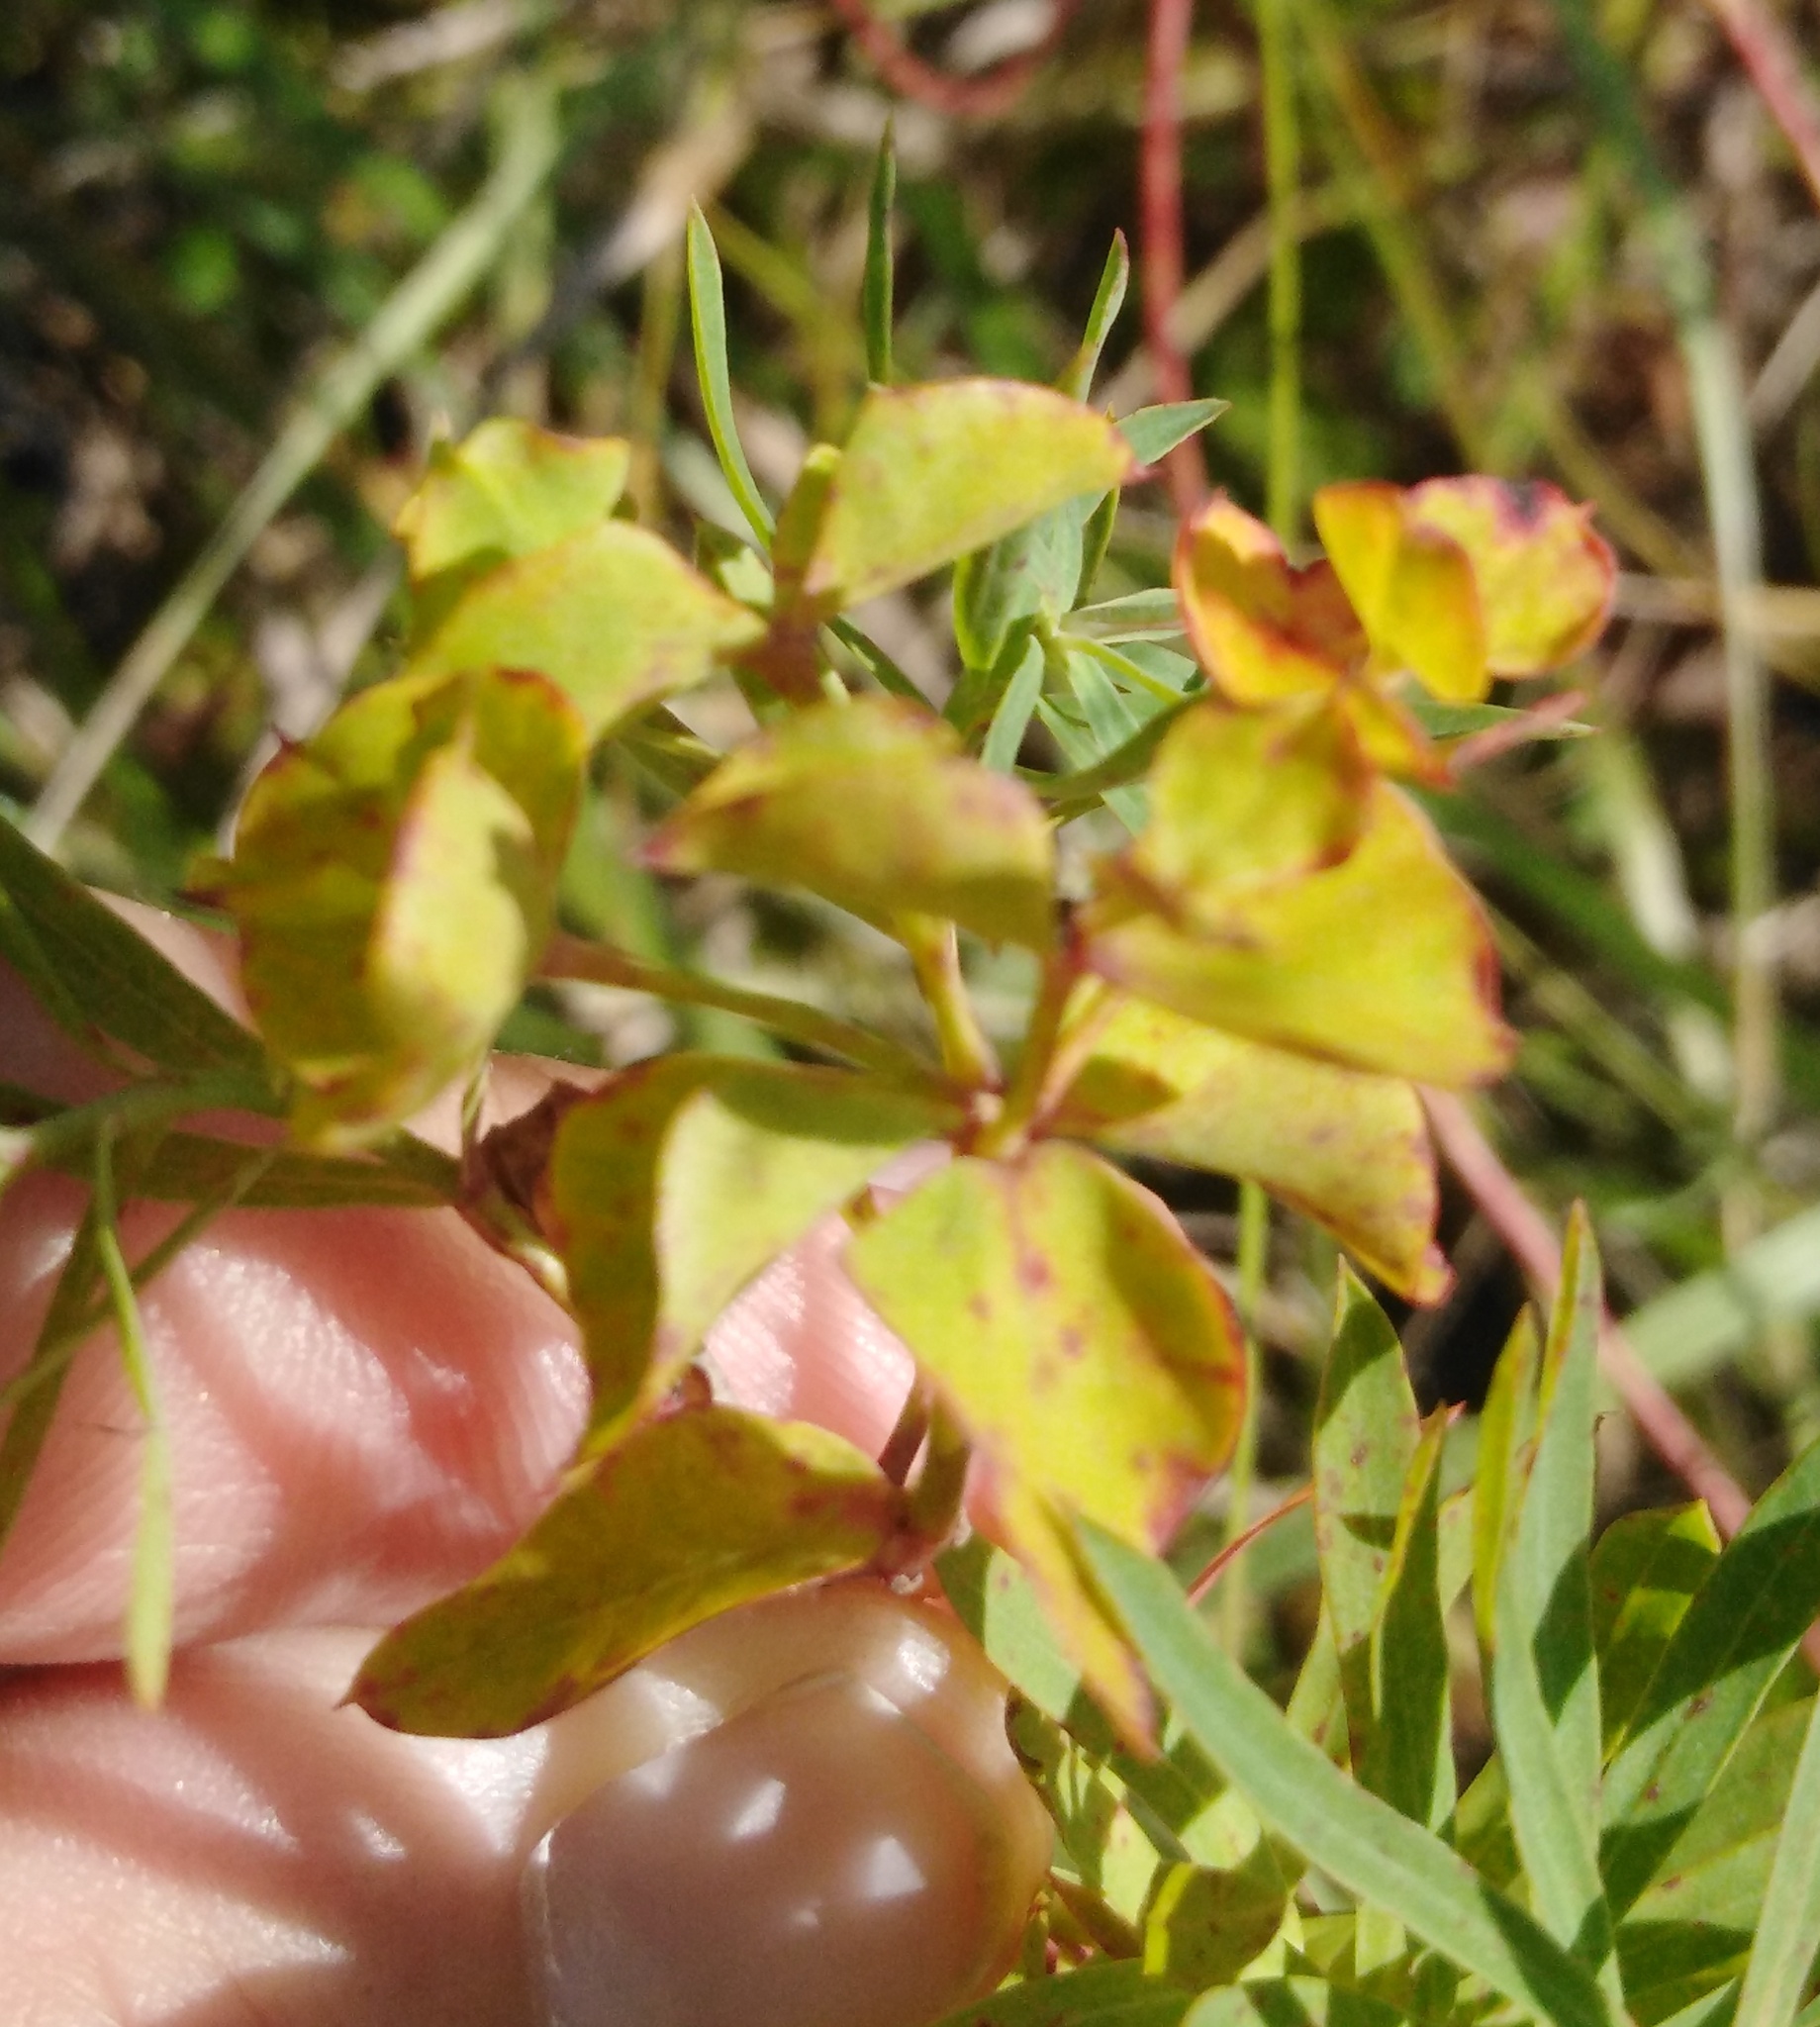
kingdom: Plantae
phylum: Tracheophyta
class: Magnoliopsida
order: Malpighiales
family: Euphorbiaceae
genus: Euphorbia
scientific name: Euphorbia virgata
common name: Leafy spurge
